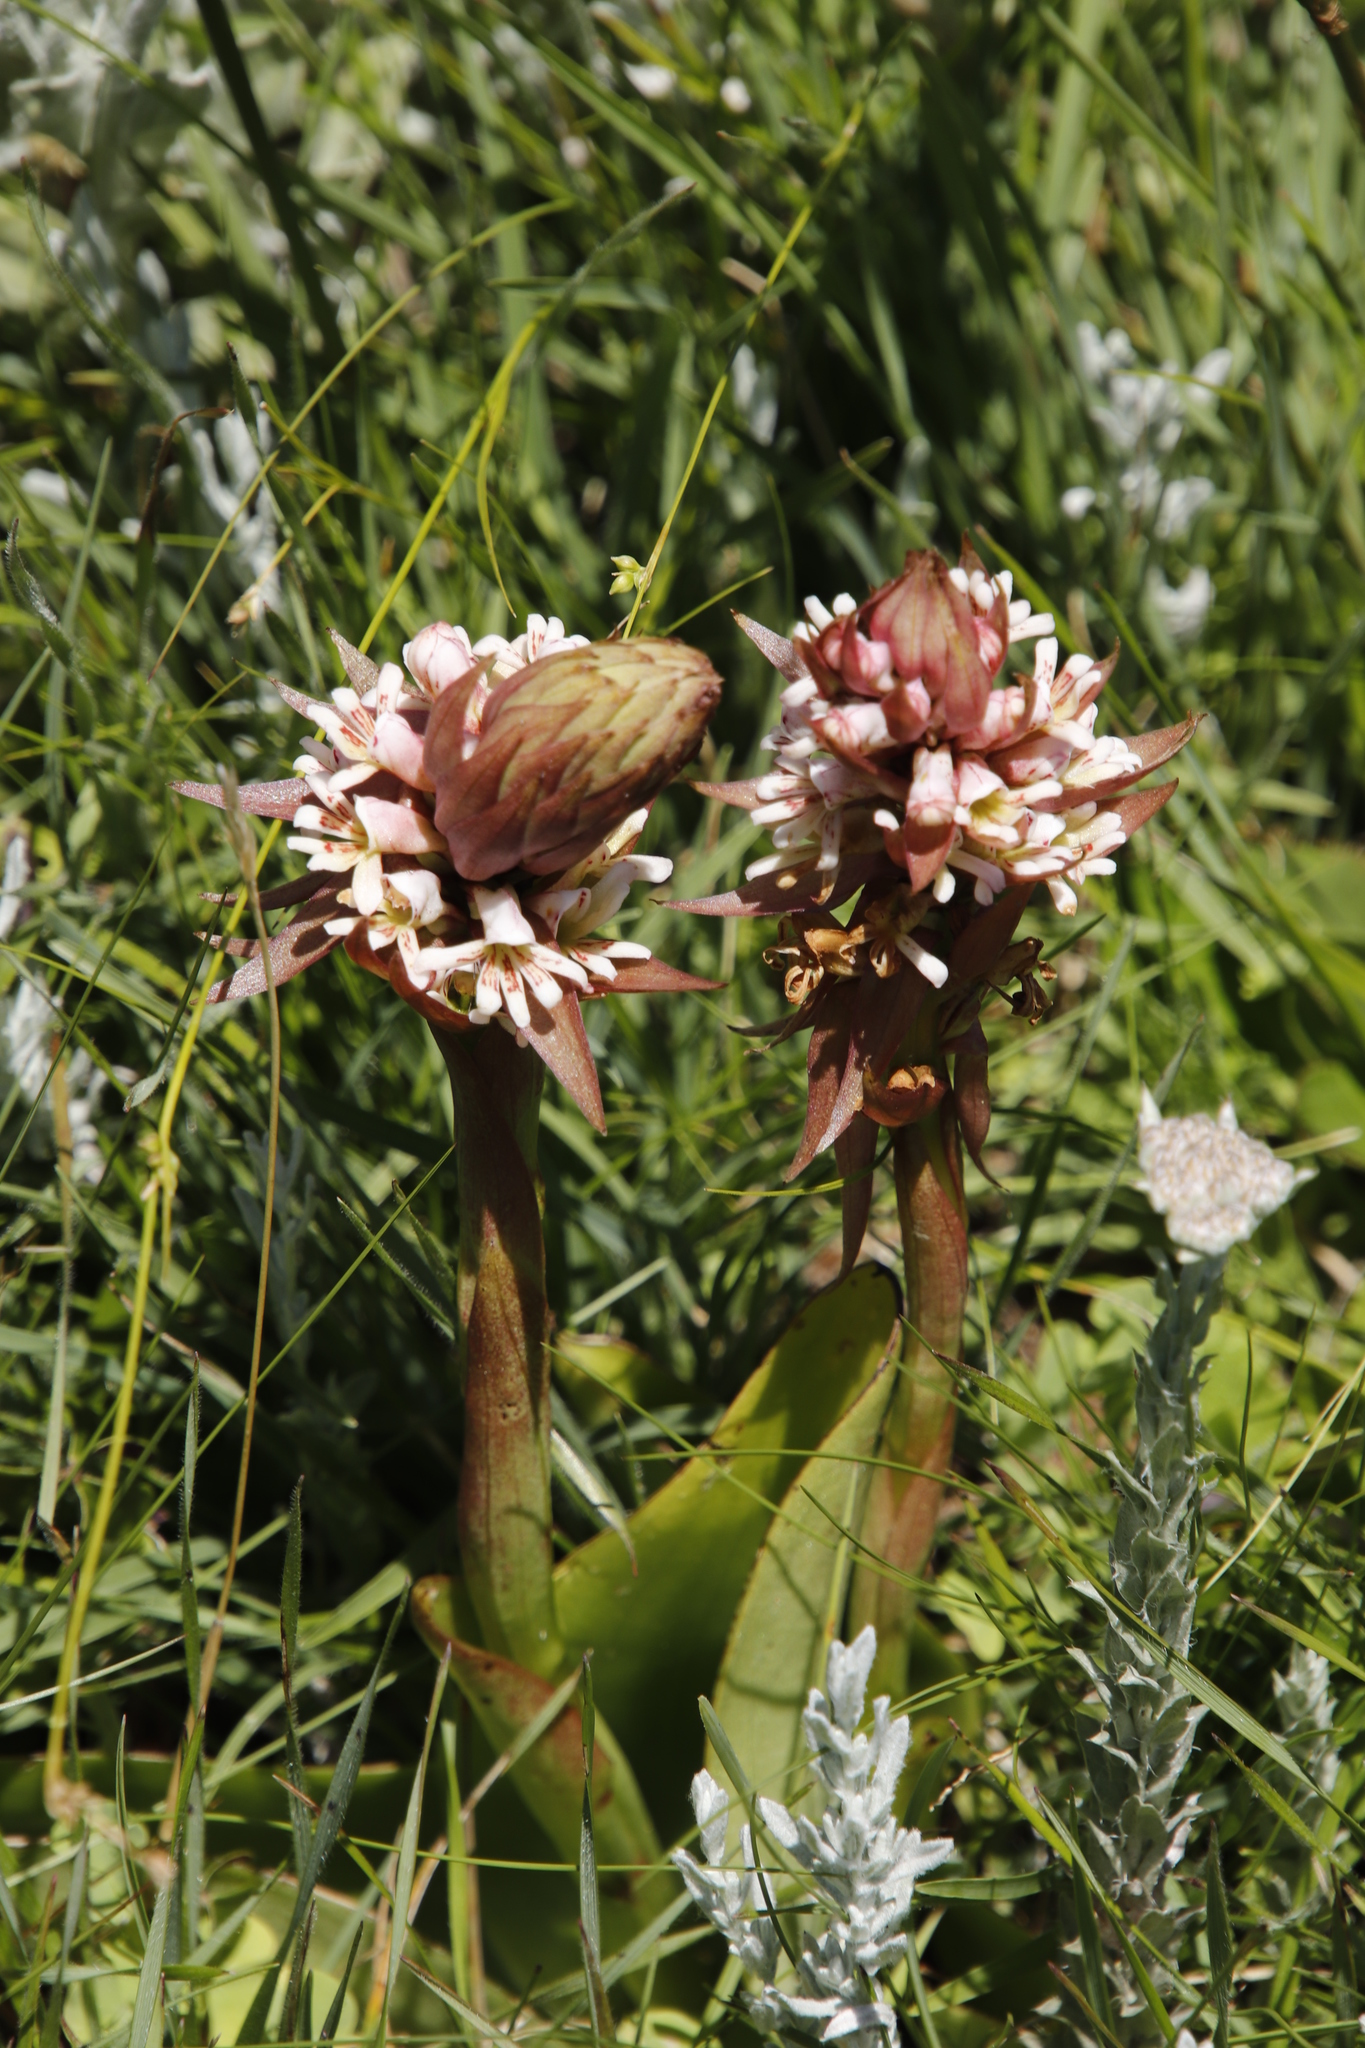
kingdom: Plantae
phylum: Tracheophyta
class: Liliopsida
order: Asparagales
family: Orchidaceae
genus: Satyrium
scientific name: Satyrium cristatum
